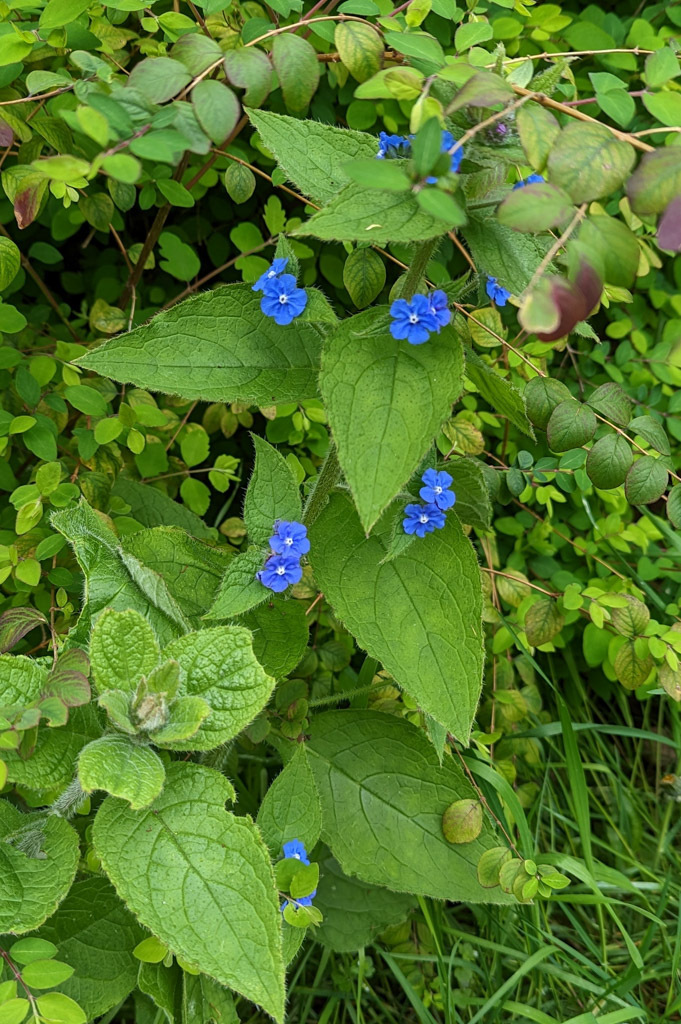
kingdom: Plantae
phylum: Tracheophyta
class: Magnoliopsida
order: Boraginales
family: Boraginaceae
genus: Pentaglottis
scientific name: Pentaglottis sempervirens
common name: Green alkanet
